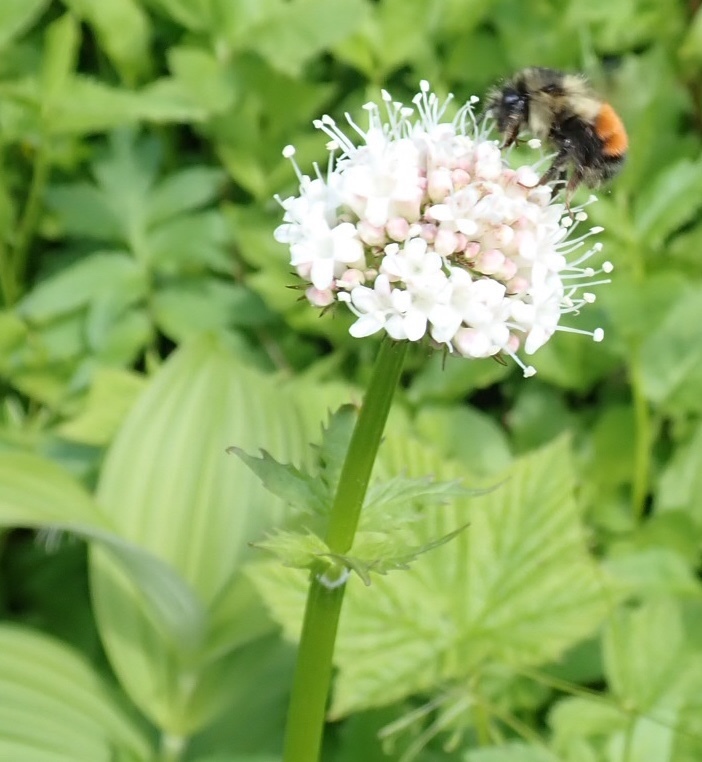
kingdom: Animalia
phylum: Arthropoda
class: Insecta
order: Hymenoptera
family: Apidae
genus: Bombus
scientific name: Bombus melanopygus
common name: Black tail bumble bee
